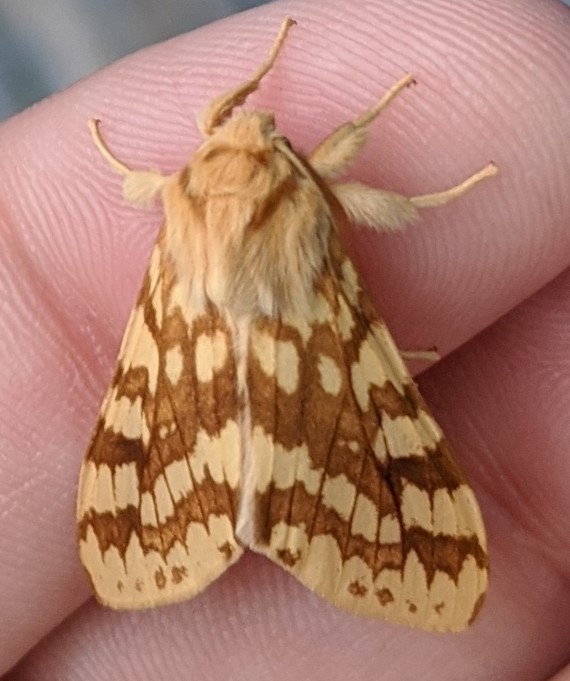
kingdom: Animalia
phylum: Arthropoda
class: Insecta
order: Lepidoptera
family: Erebidae
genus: Lophocampa
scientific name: Lophocampa maculata
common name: Spotted tussock moth
